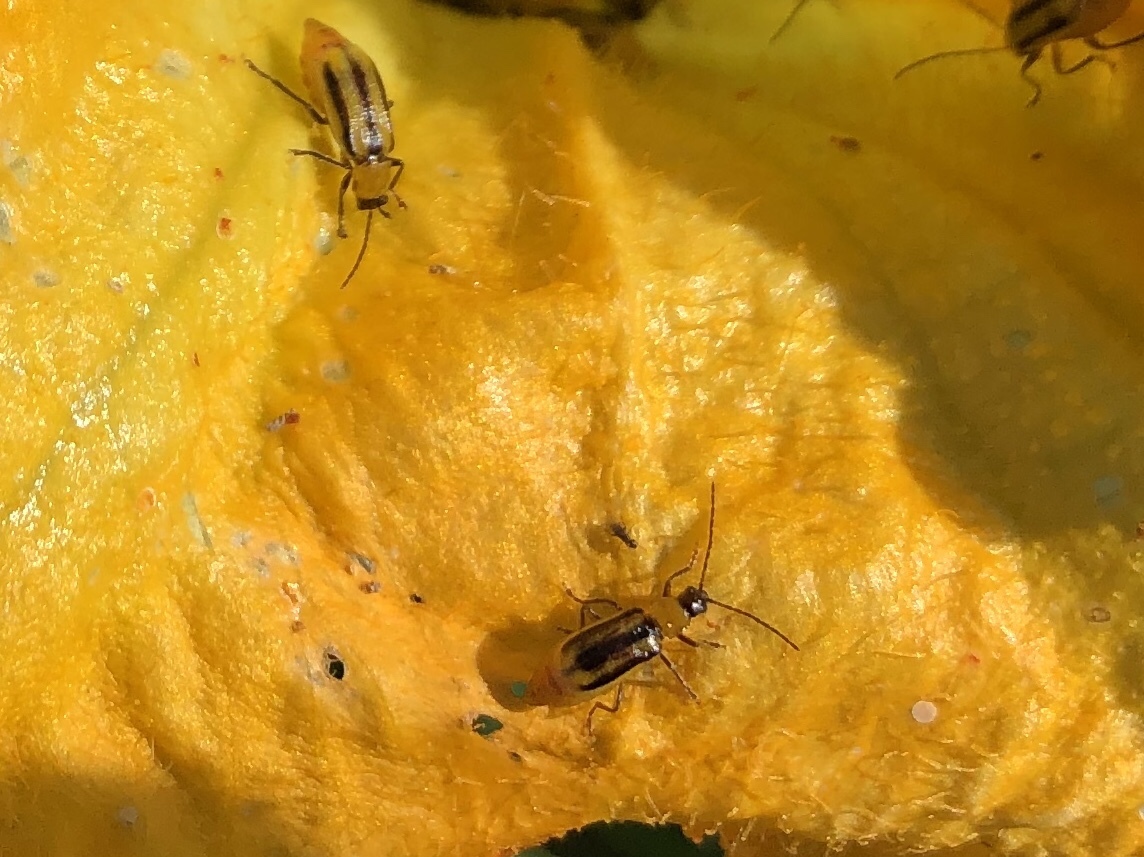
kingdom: Animalia
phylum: Arthropoda
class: Insecta
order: Coleoptera
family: Chrysomelidae
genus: Diabrotica
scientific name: Diabrotica virgifera
